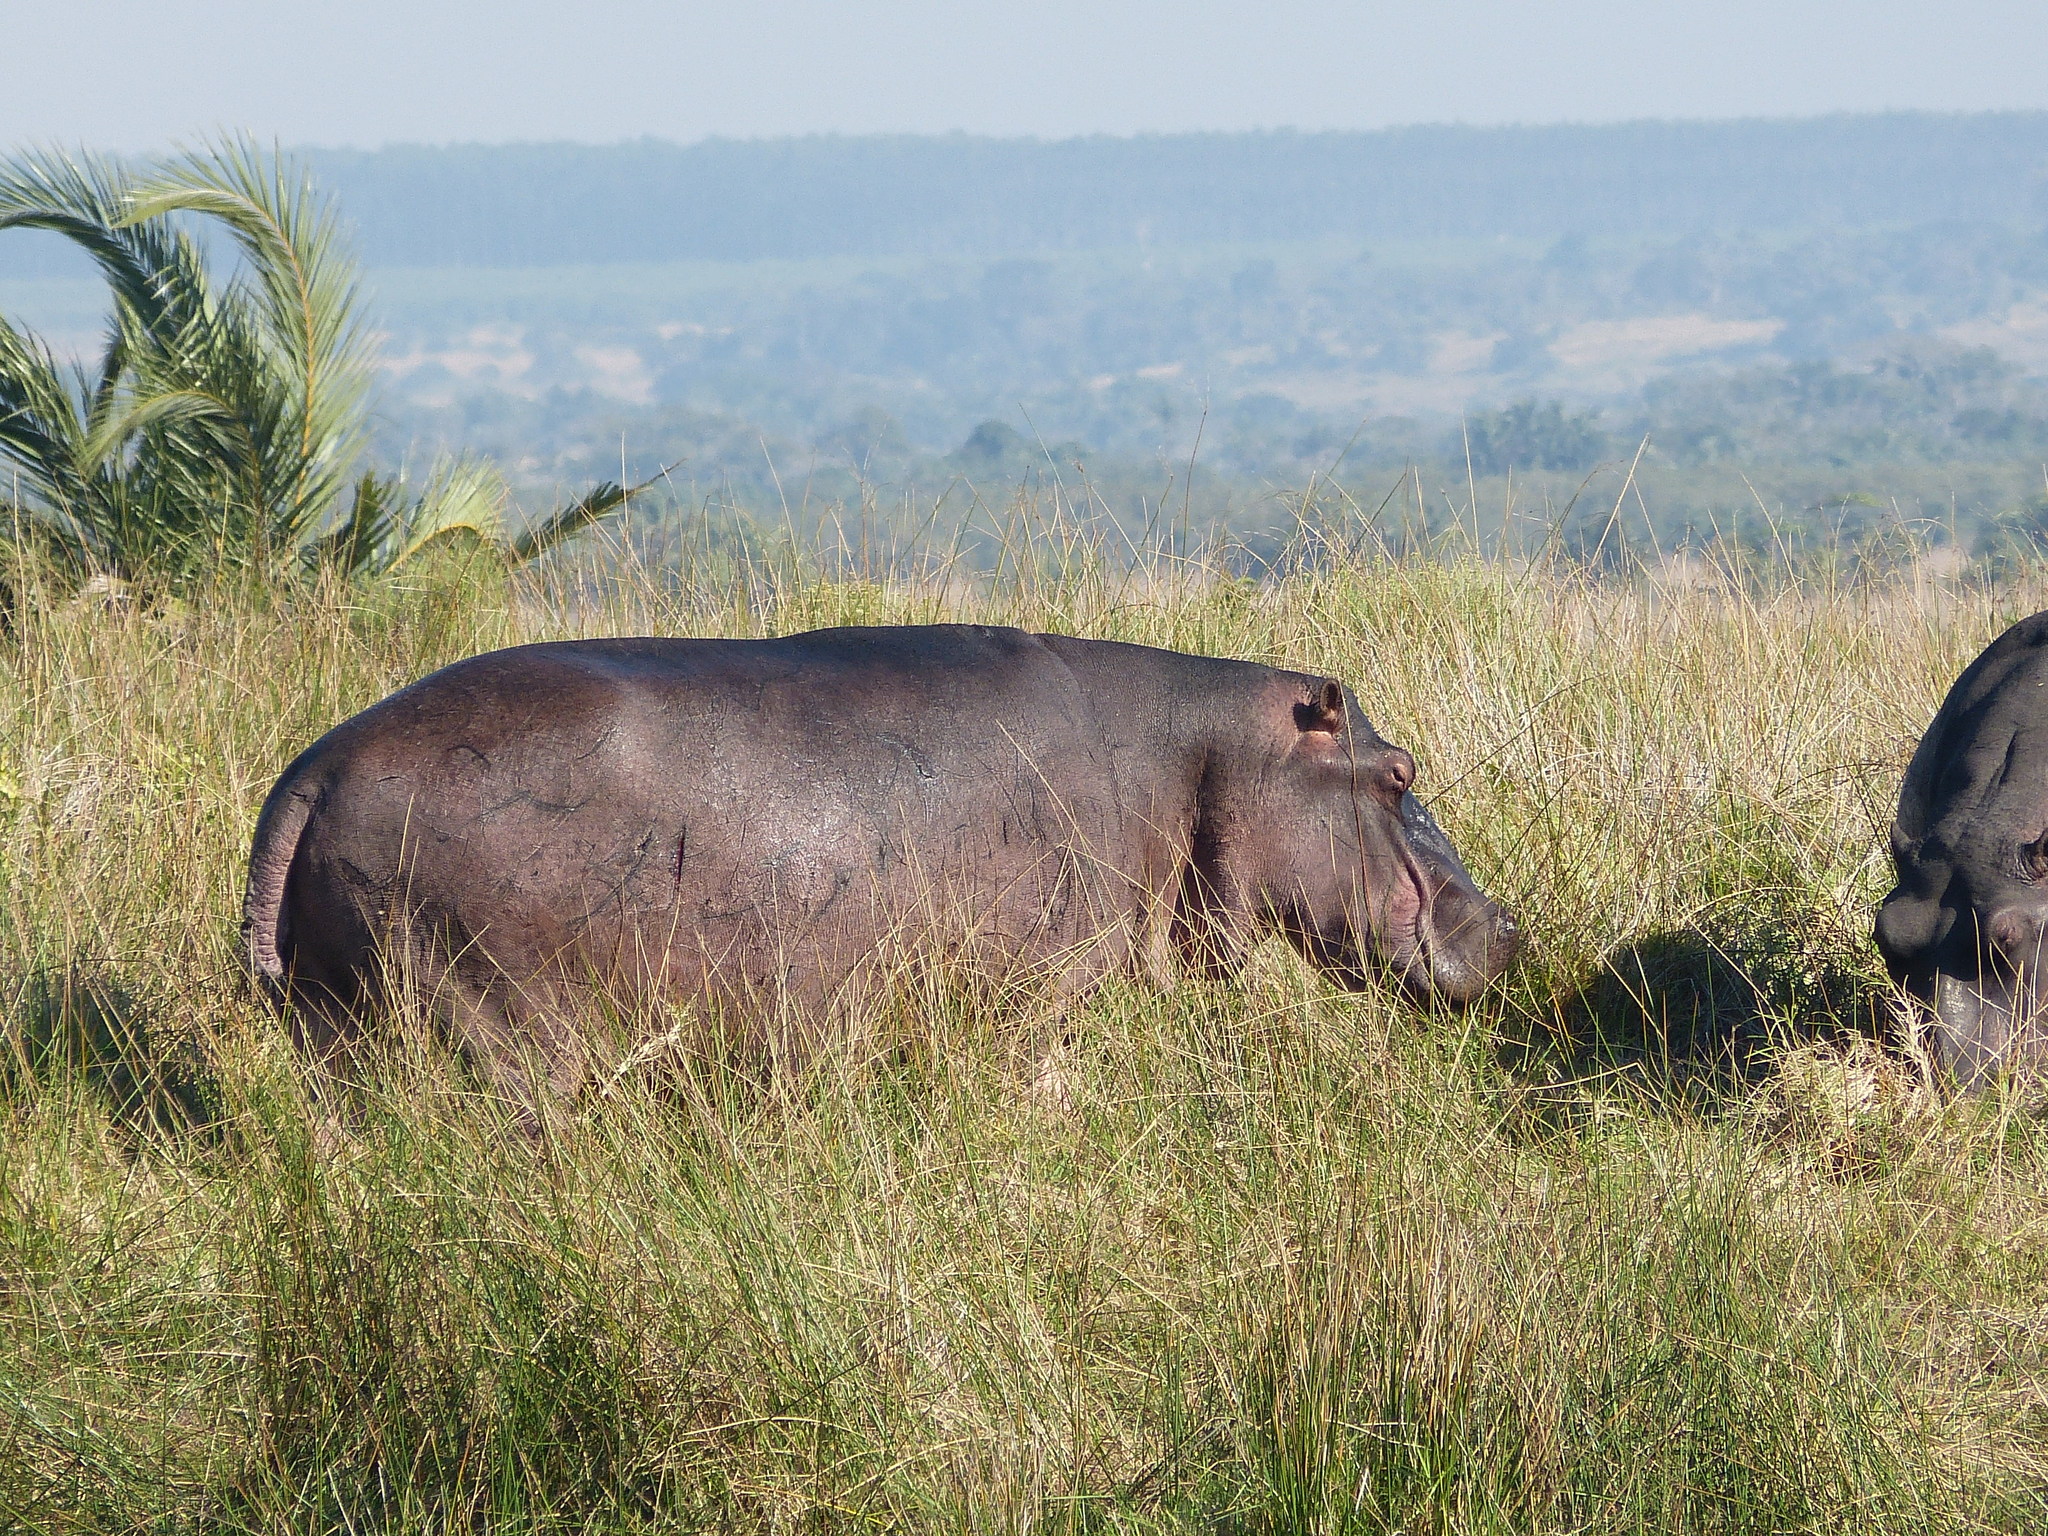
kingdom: Animalia
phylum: Chordata
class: Mammalia
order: Artiodactyla
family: Hippopotamidae
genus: Hippopotamus
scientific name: Hippopotamus amphibius
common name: Common hippopotamus
